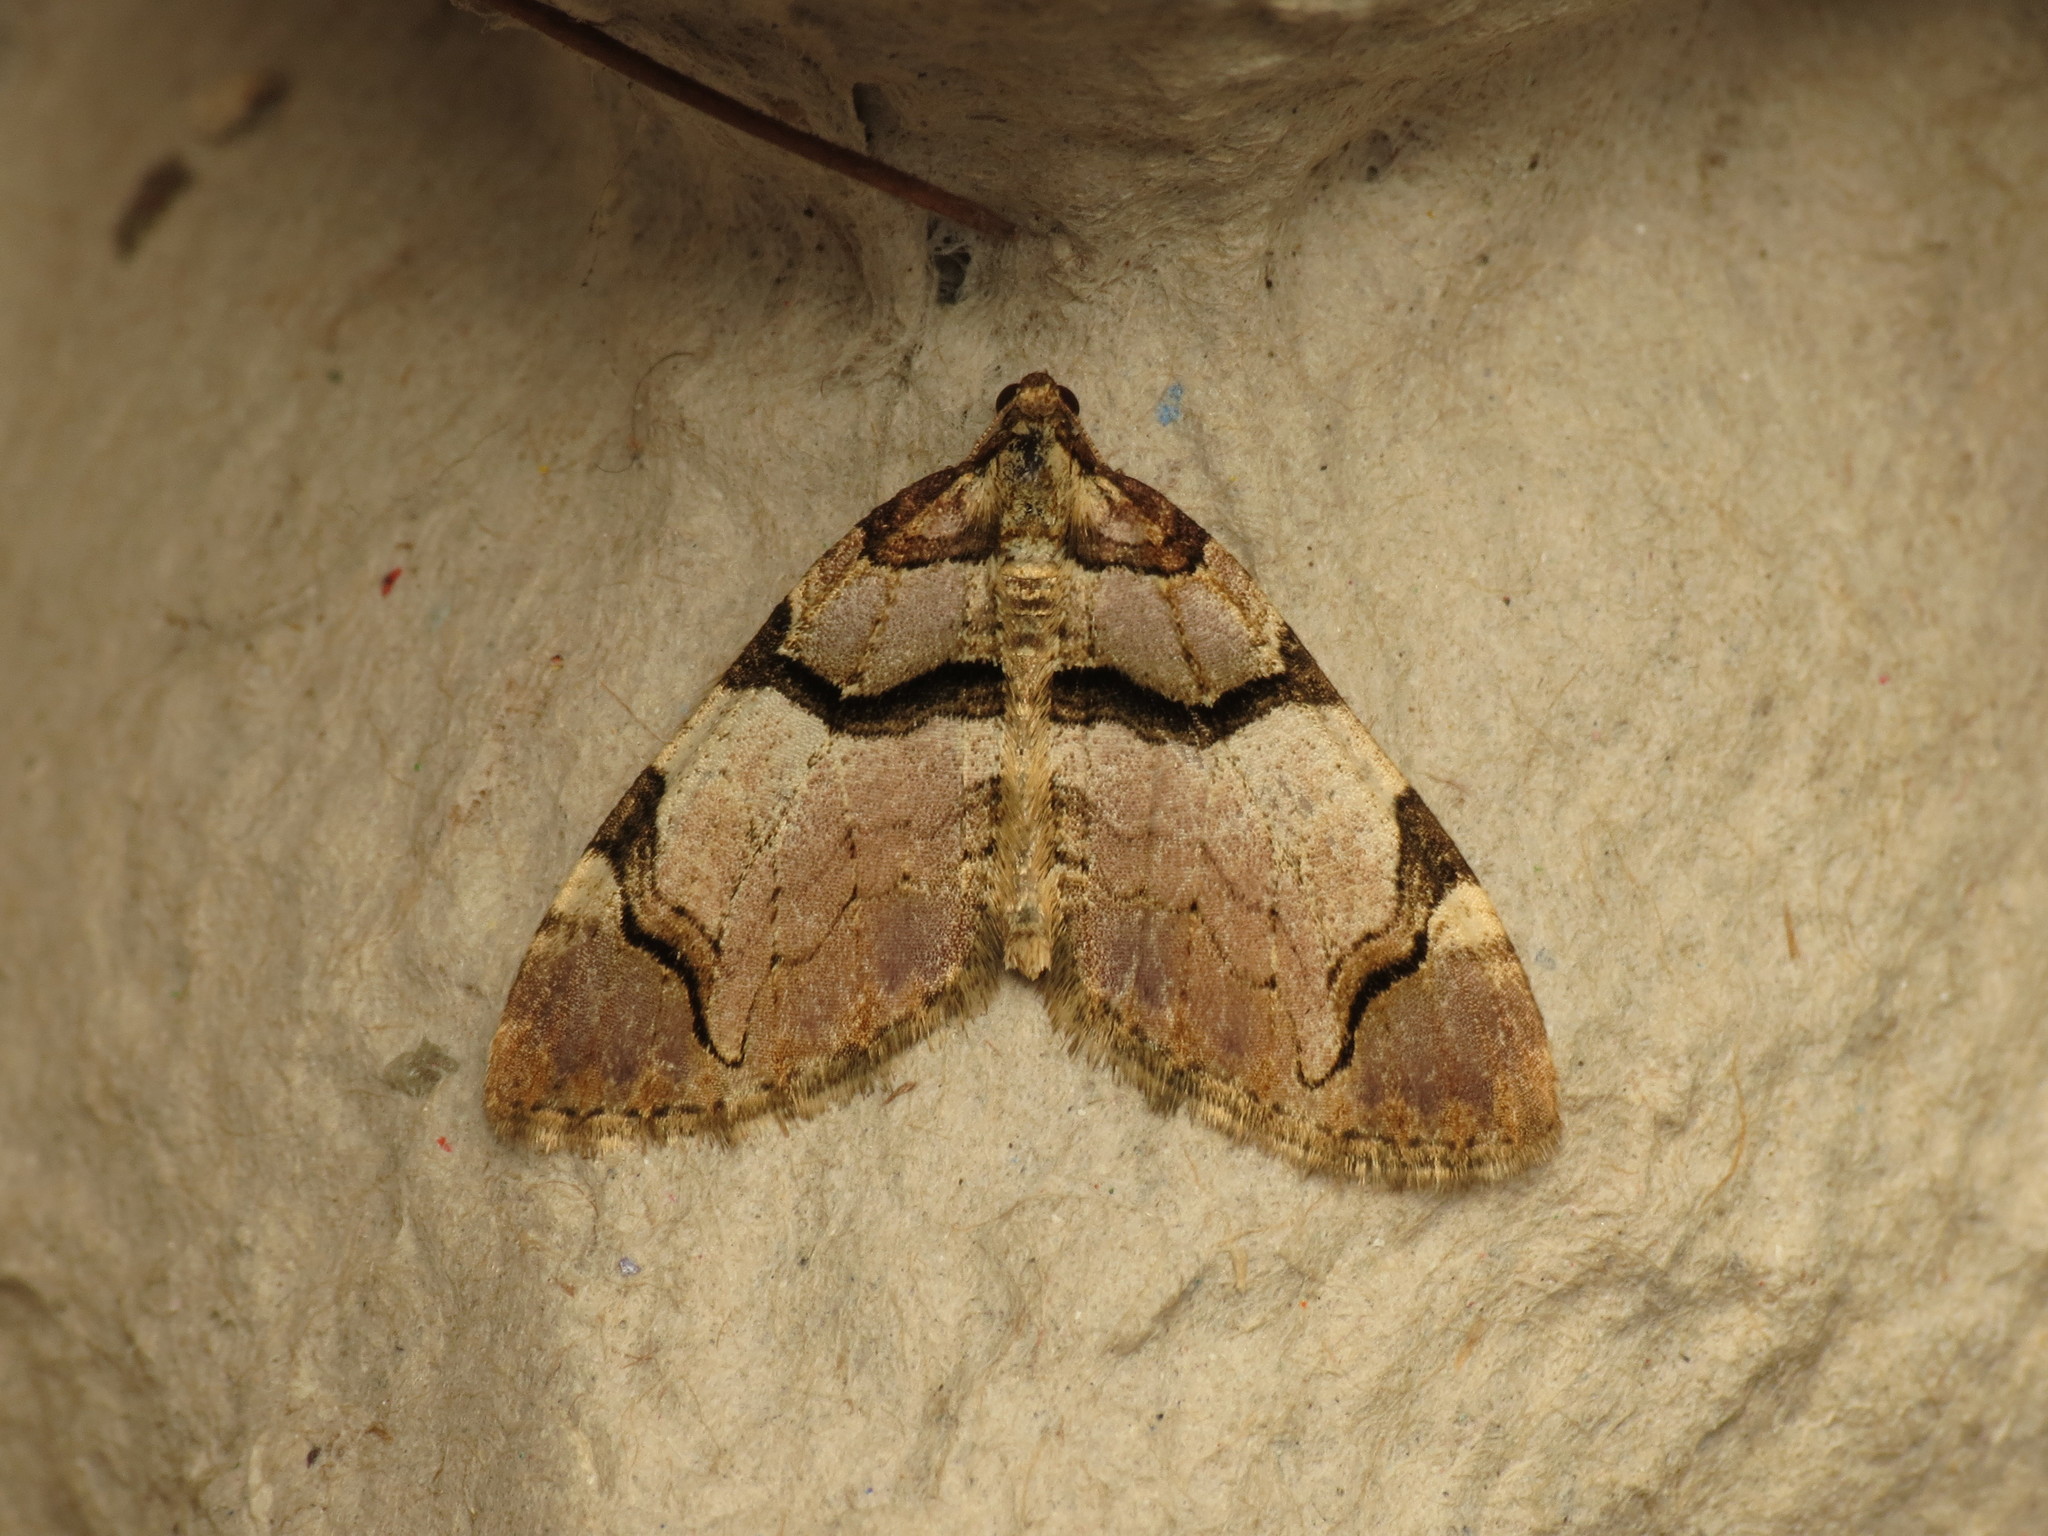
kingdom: Animalia
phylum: Arthropoda
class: Insecta
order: Lepidoptera
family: Geometridae
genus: Anticlea
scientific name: Anticlea derivata
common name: Streamer
